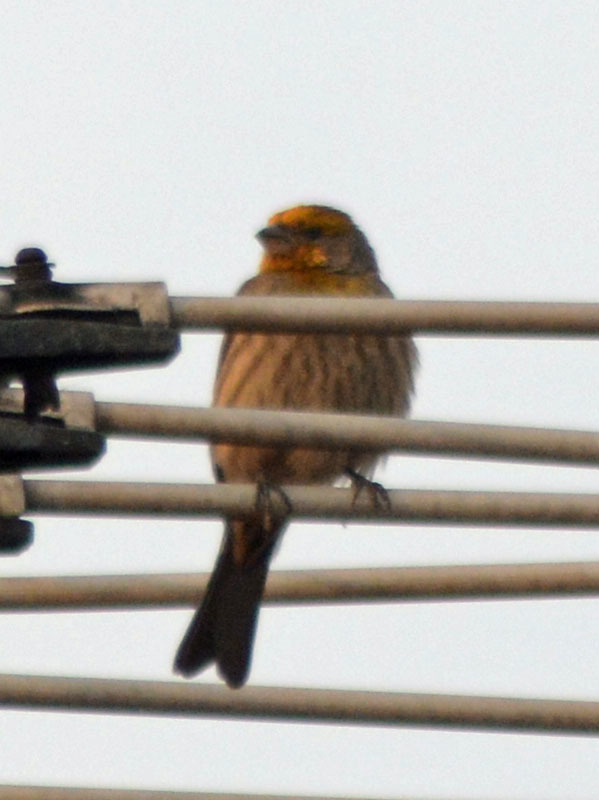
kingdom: Animalia
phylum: Chordata
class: Aves
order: Passeriformes
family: Fringillidae
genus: Haemorhous
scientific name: Haemorhous mexicanus
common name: House finch
